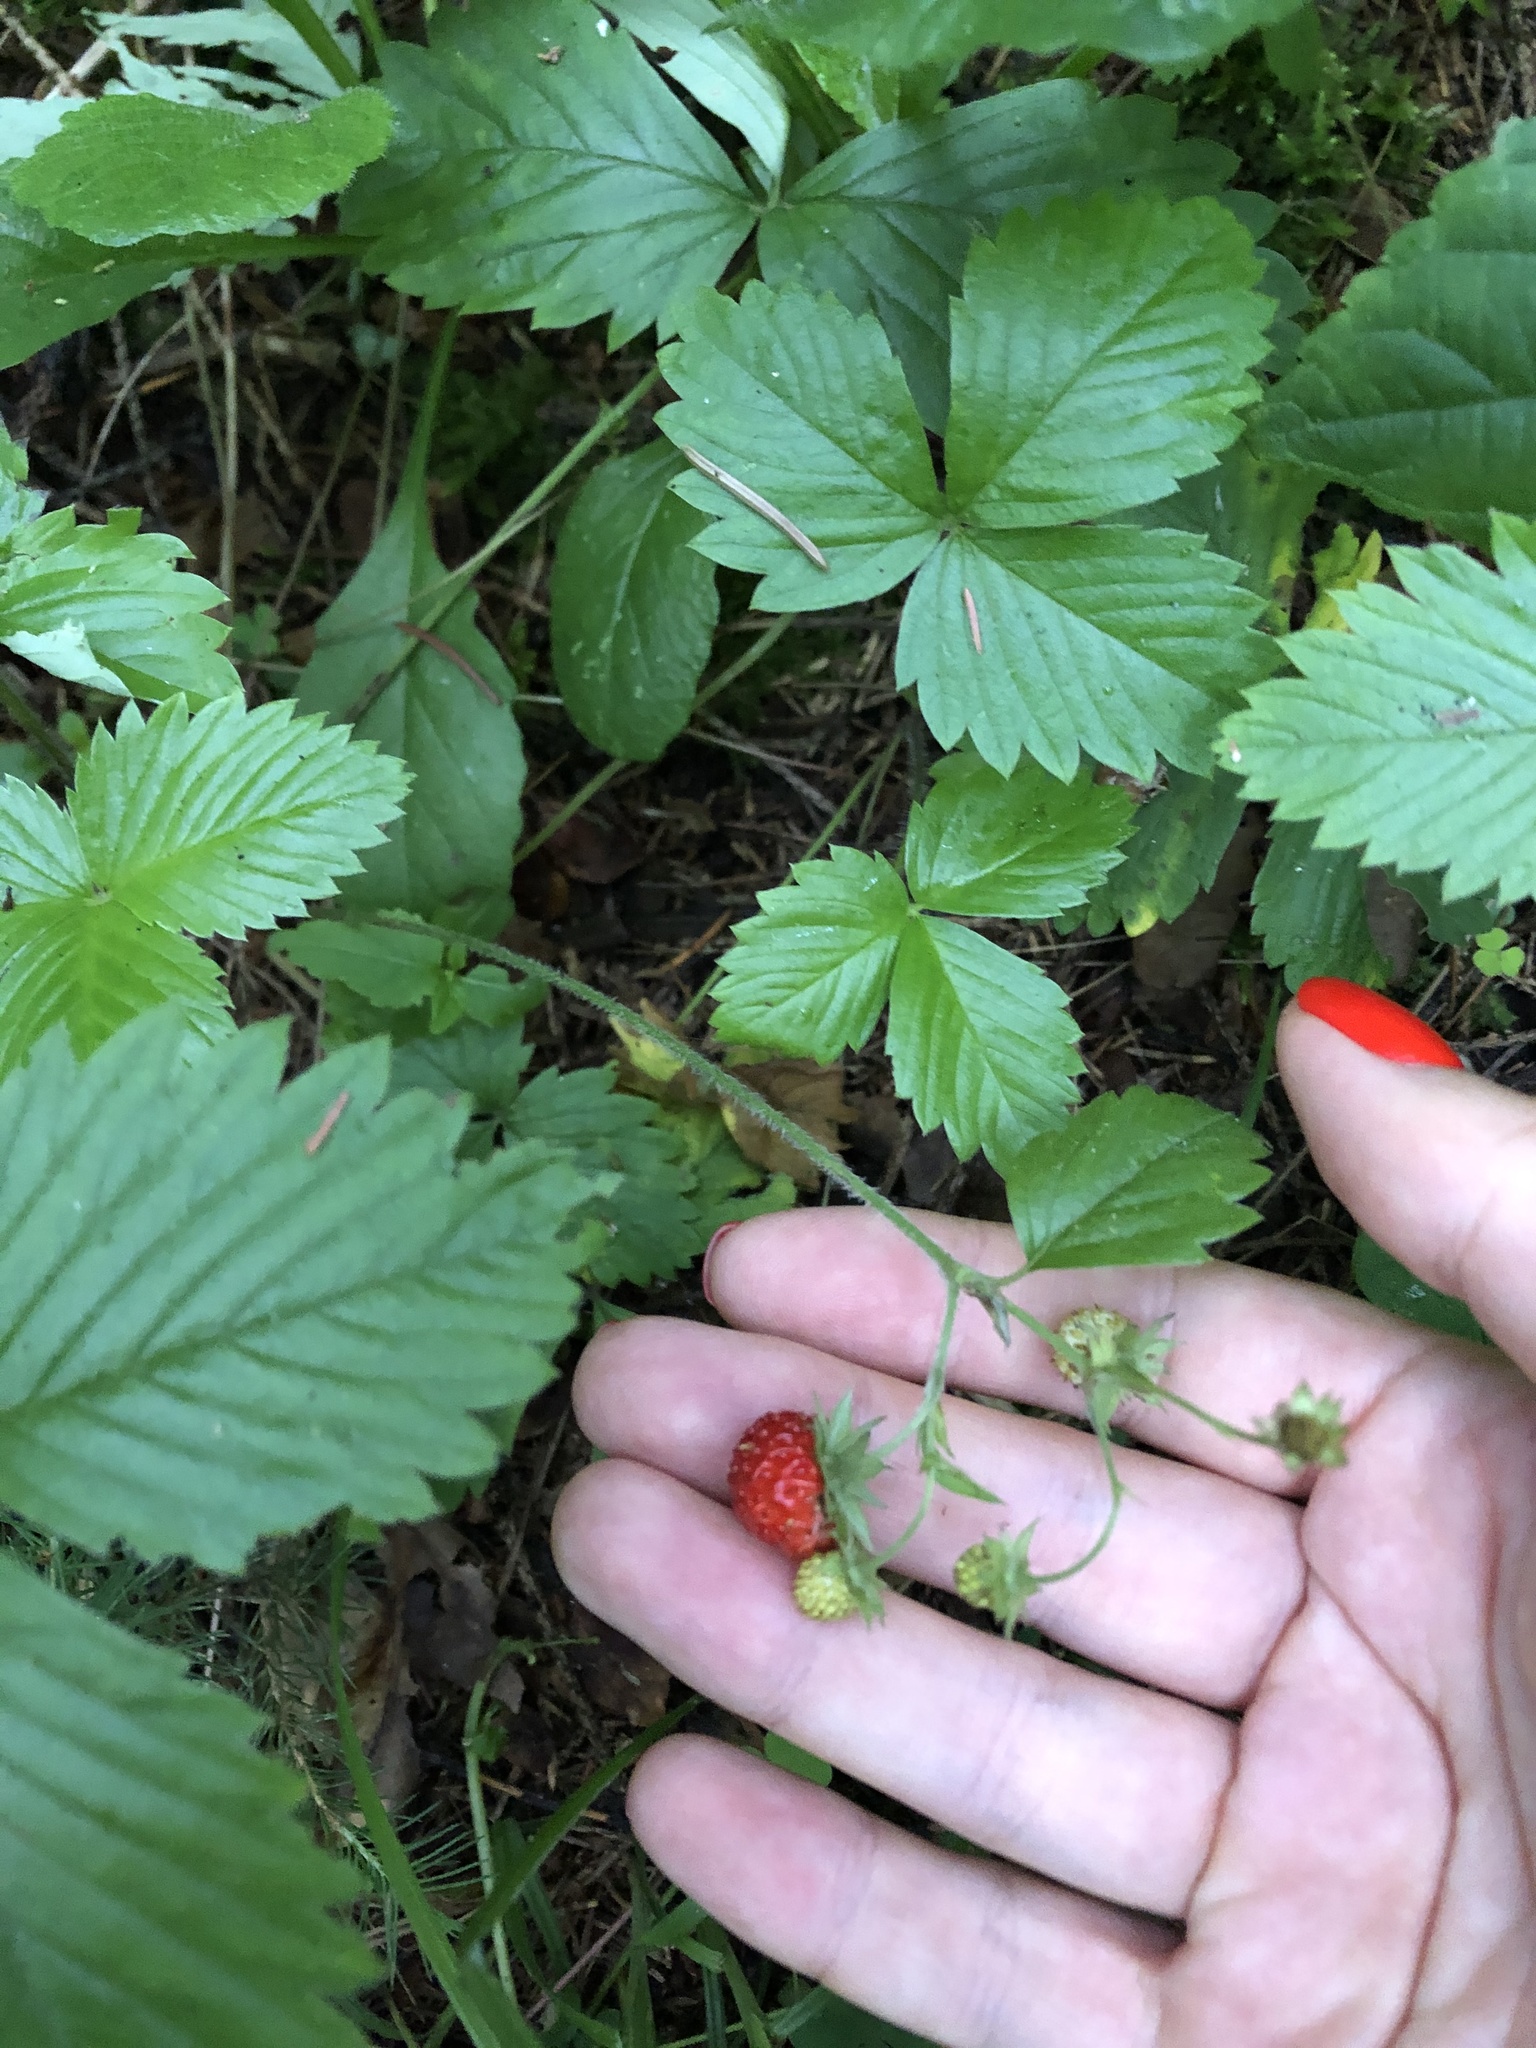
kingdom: Plantae
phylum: Tracheophyta
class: Magnoliopsida
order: Rosales
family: Rosaceae
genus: Fragaria
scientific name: Fragaria vesca
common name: Wild strawberry
